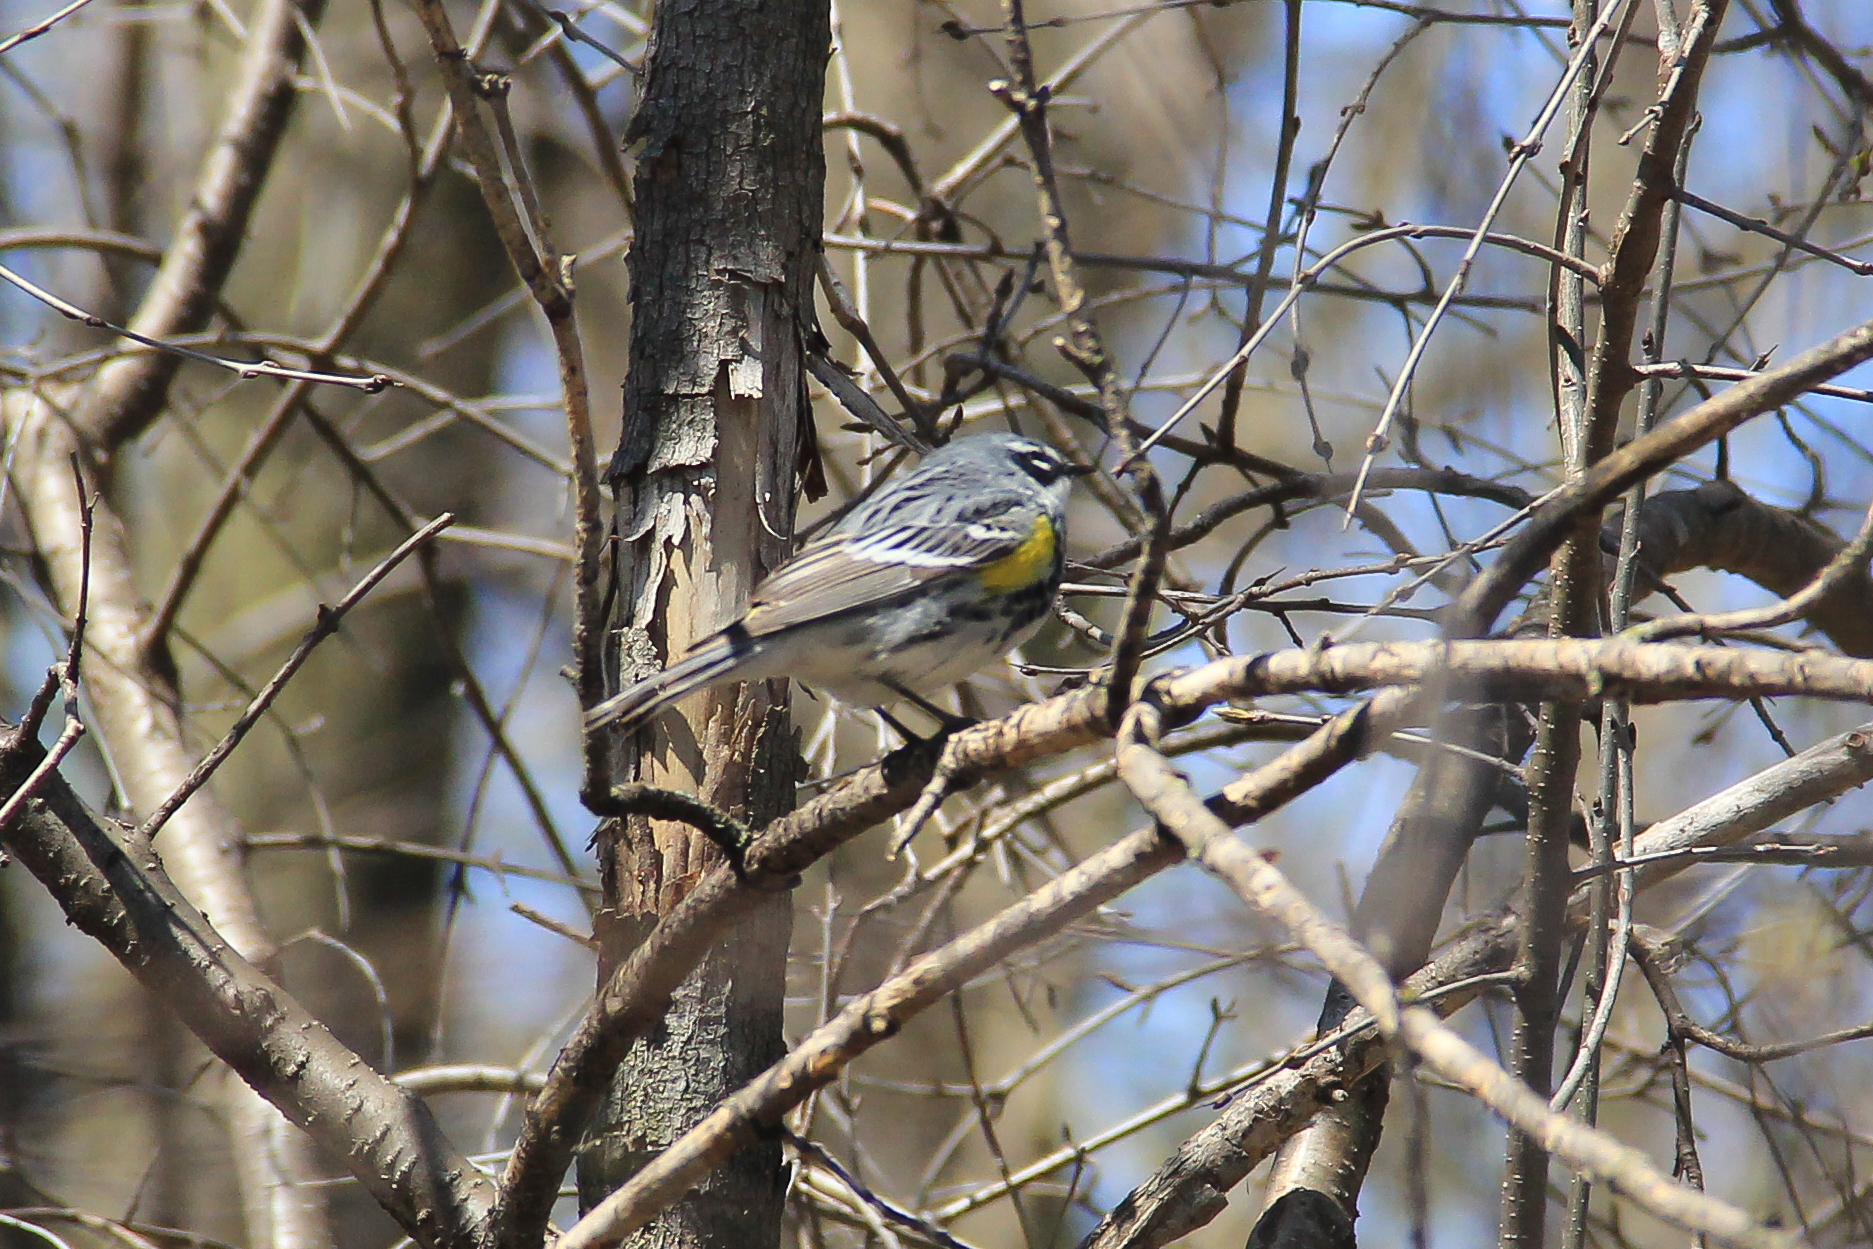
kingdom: Animalia
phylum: Chordata
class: Aves
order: Passeriformes
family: Parulidae
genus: Setophaga
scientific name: Setophaga coronata
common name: Myrtle warbler
